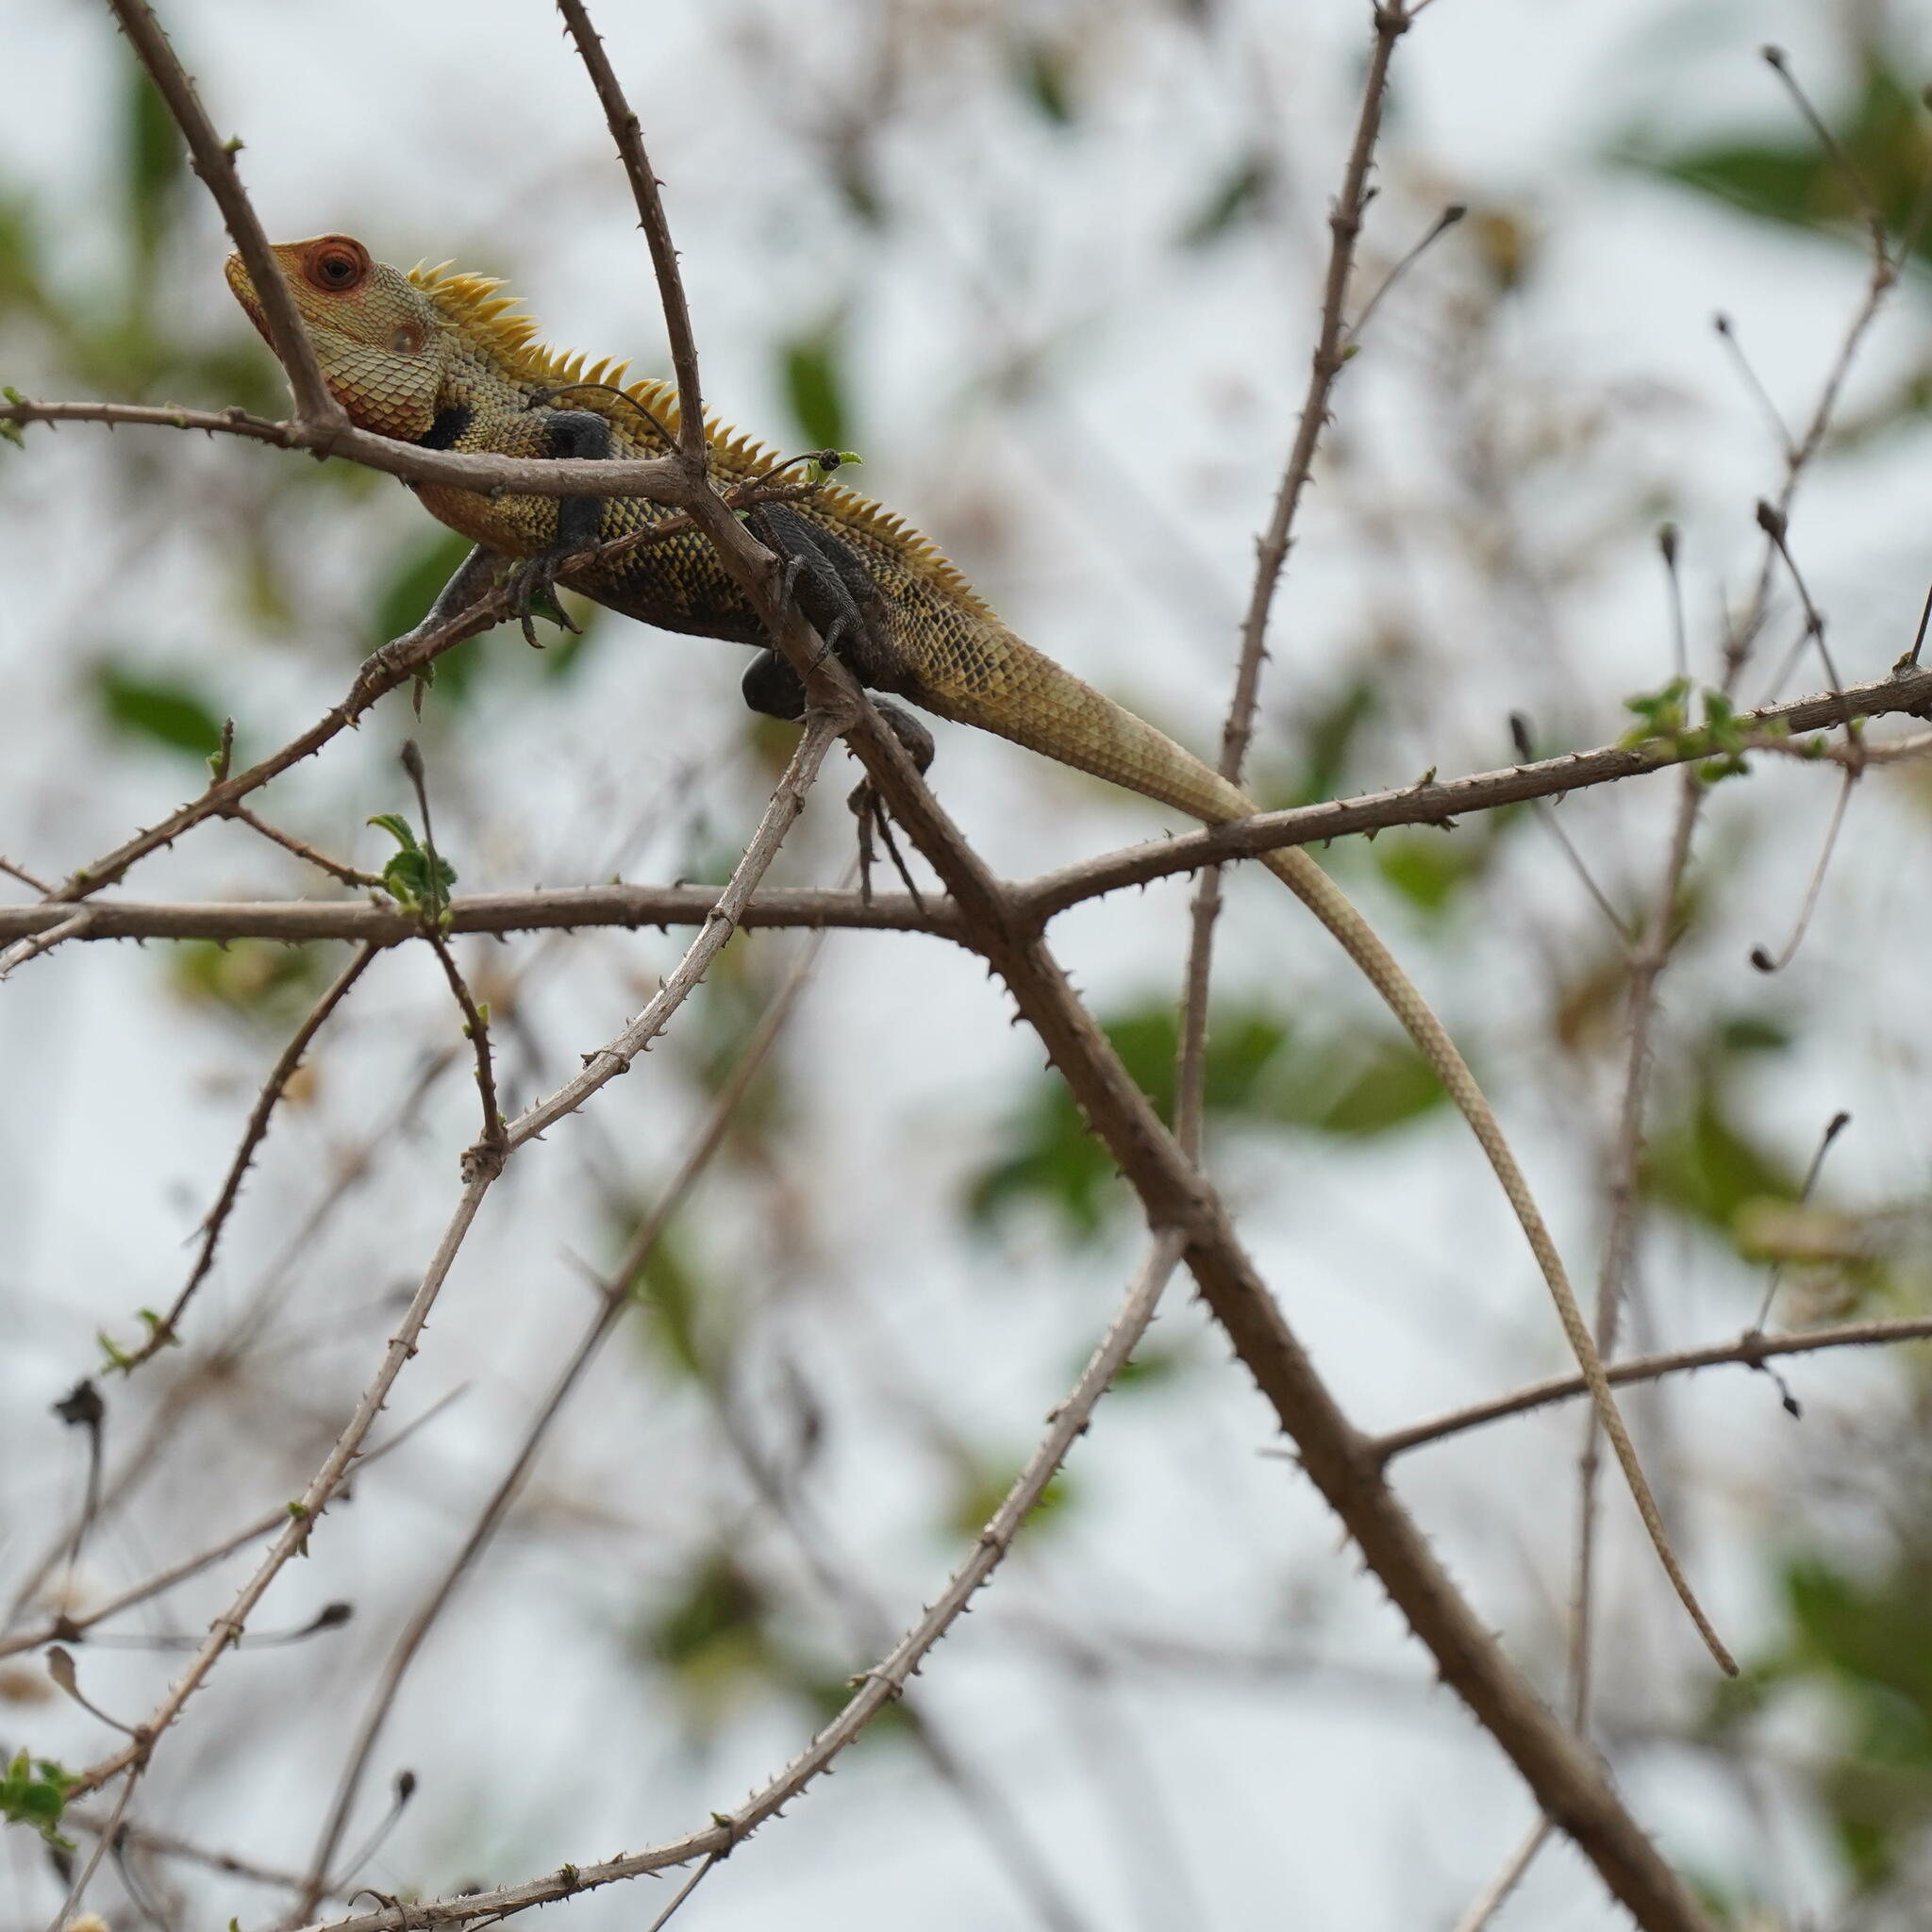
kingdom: Animalia
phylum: Chordata
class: Squamata
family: Agamidae
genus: Calotes
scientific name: Calotes versicolor
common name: Oriental garden lizard
